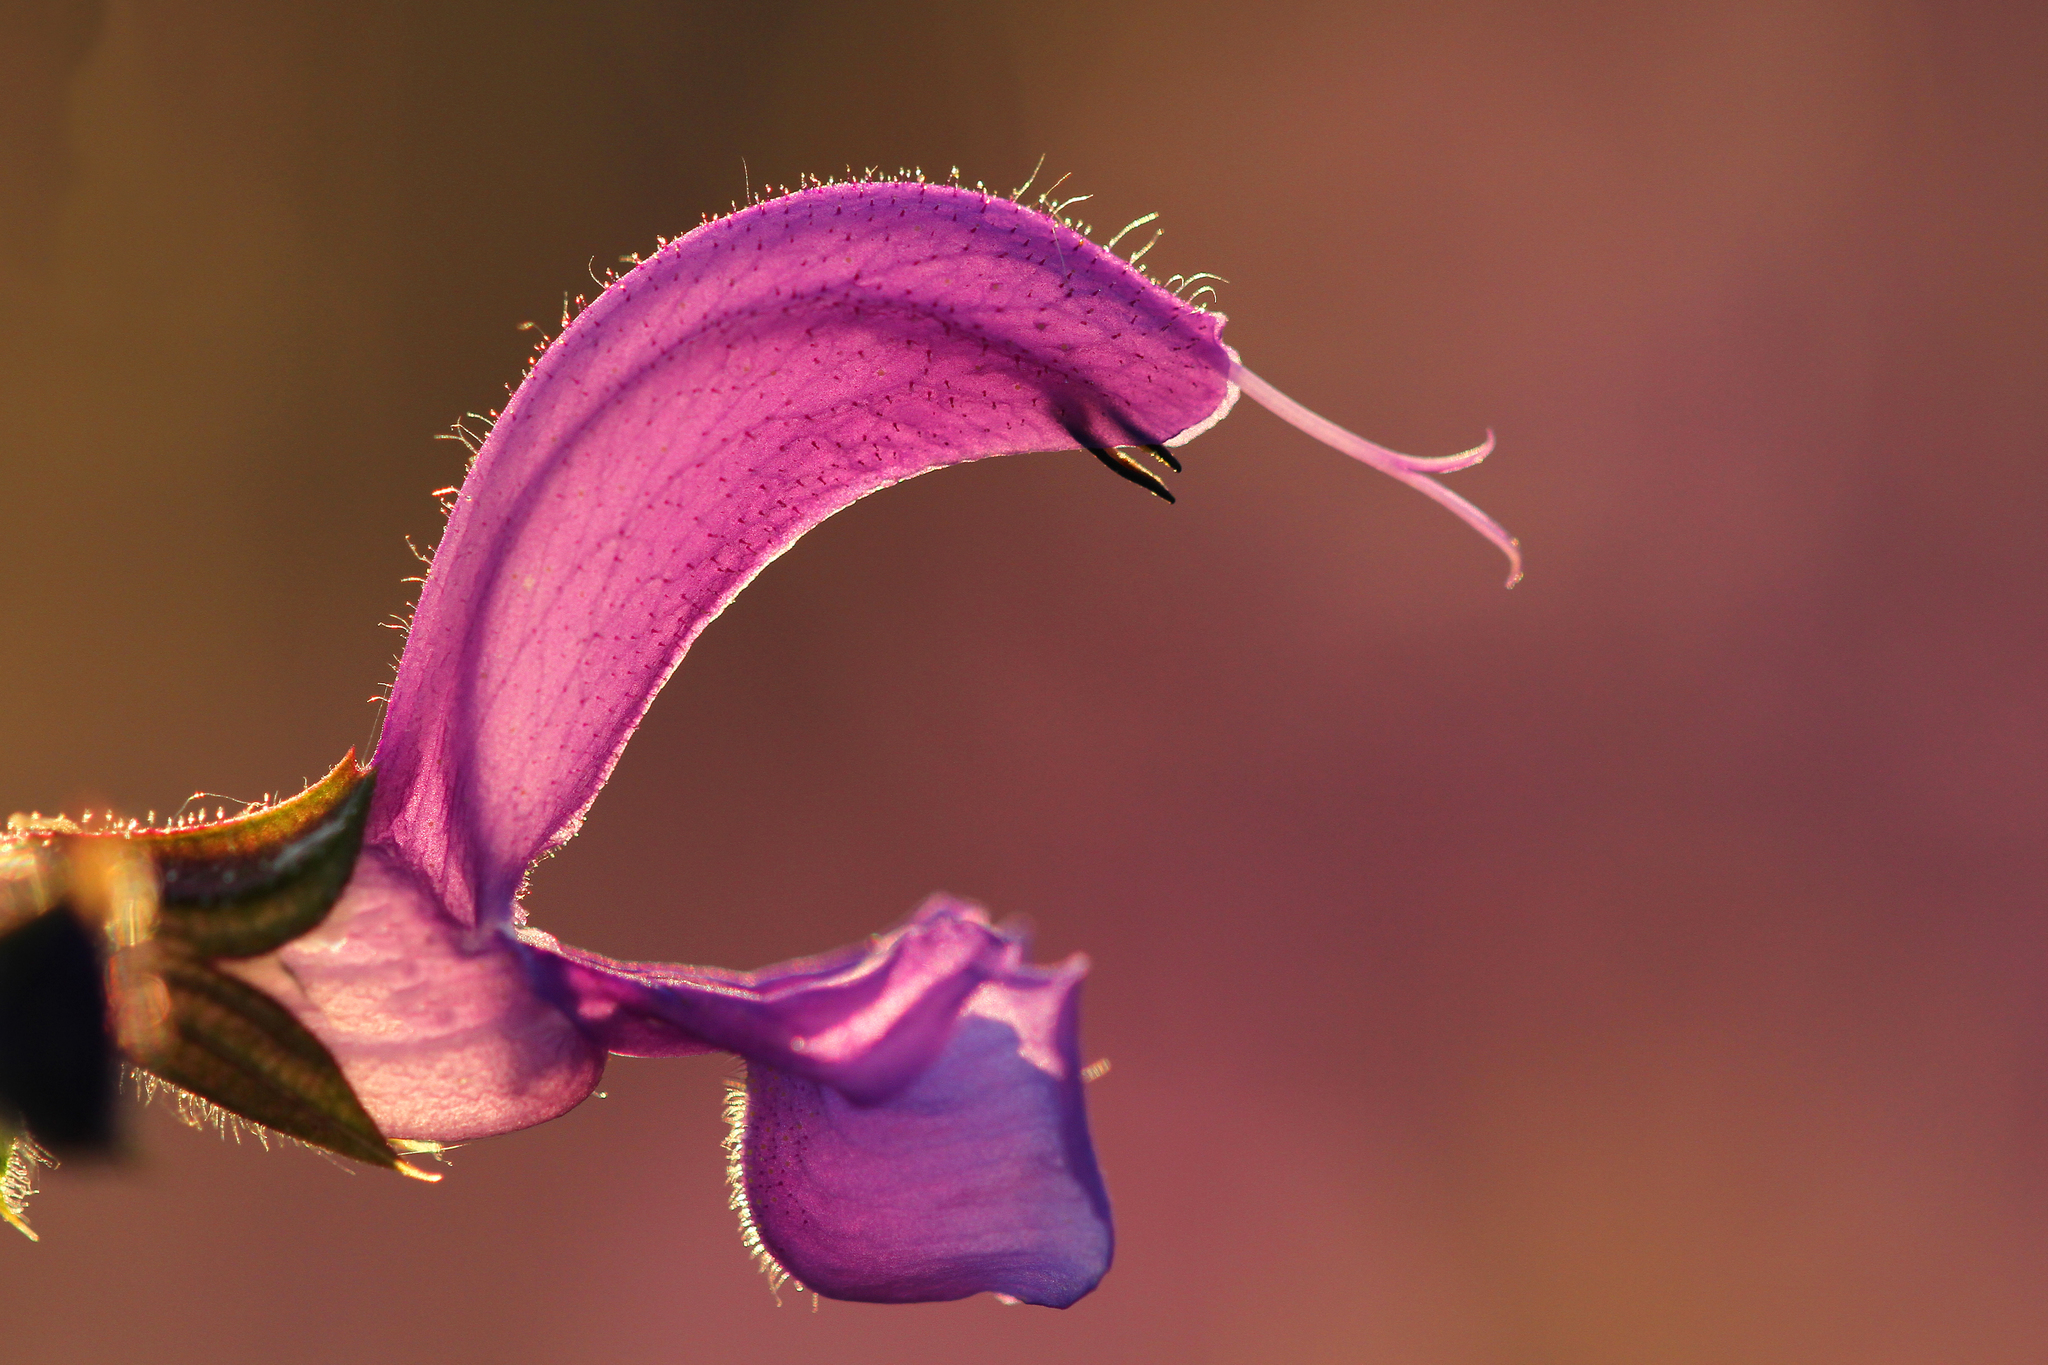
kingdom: Plantae
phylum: Tracheophyta
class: Magnoliopsida
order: Lamiales
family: Lamiaceae
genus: Salvia
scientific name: Salvia pratensis
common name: Meadow sage
